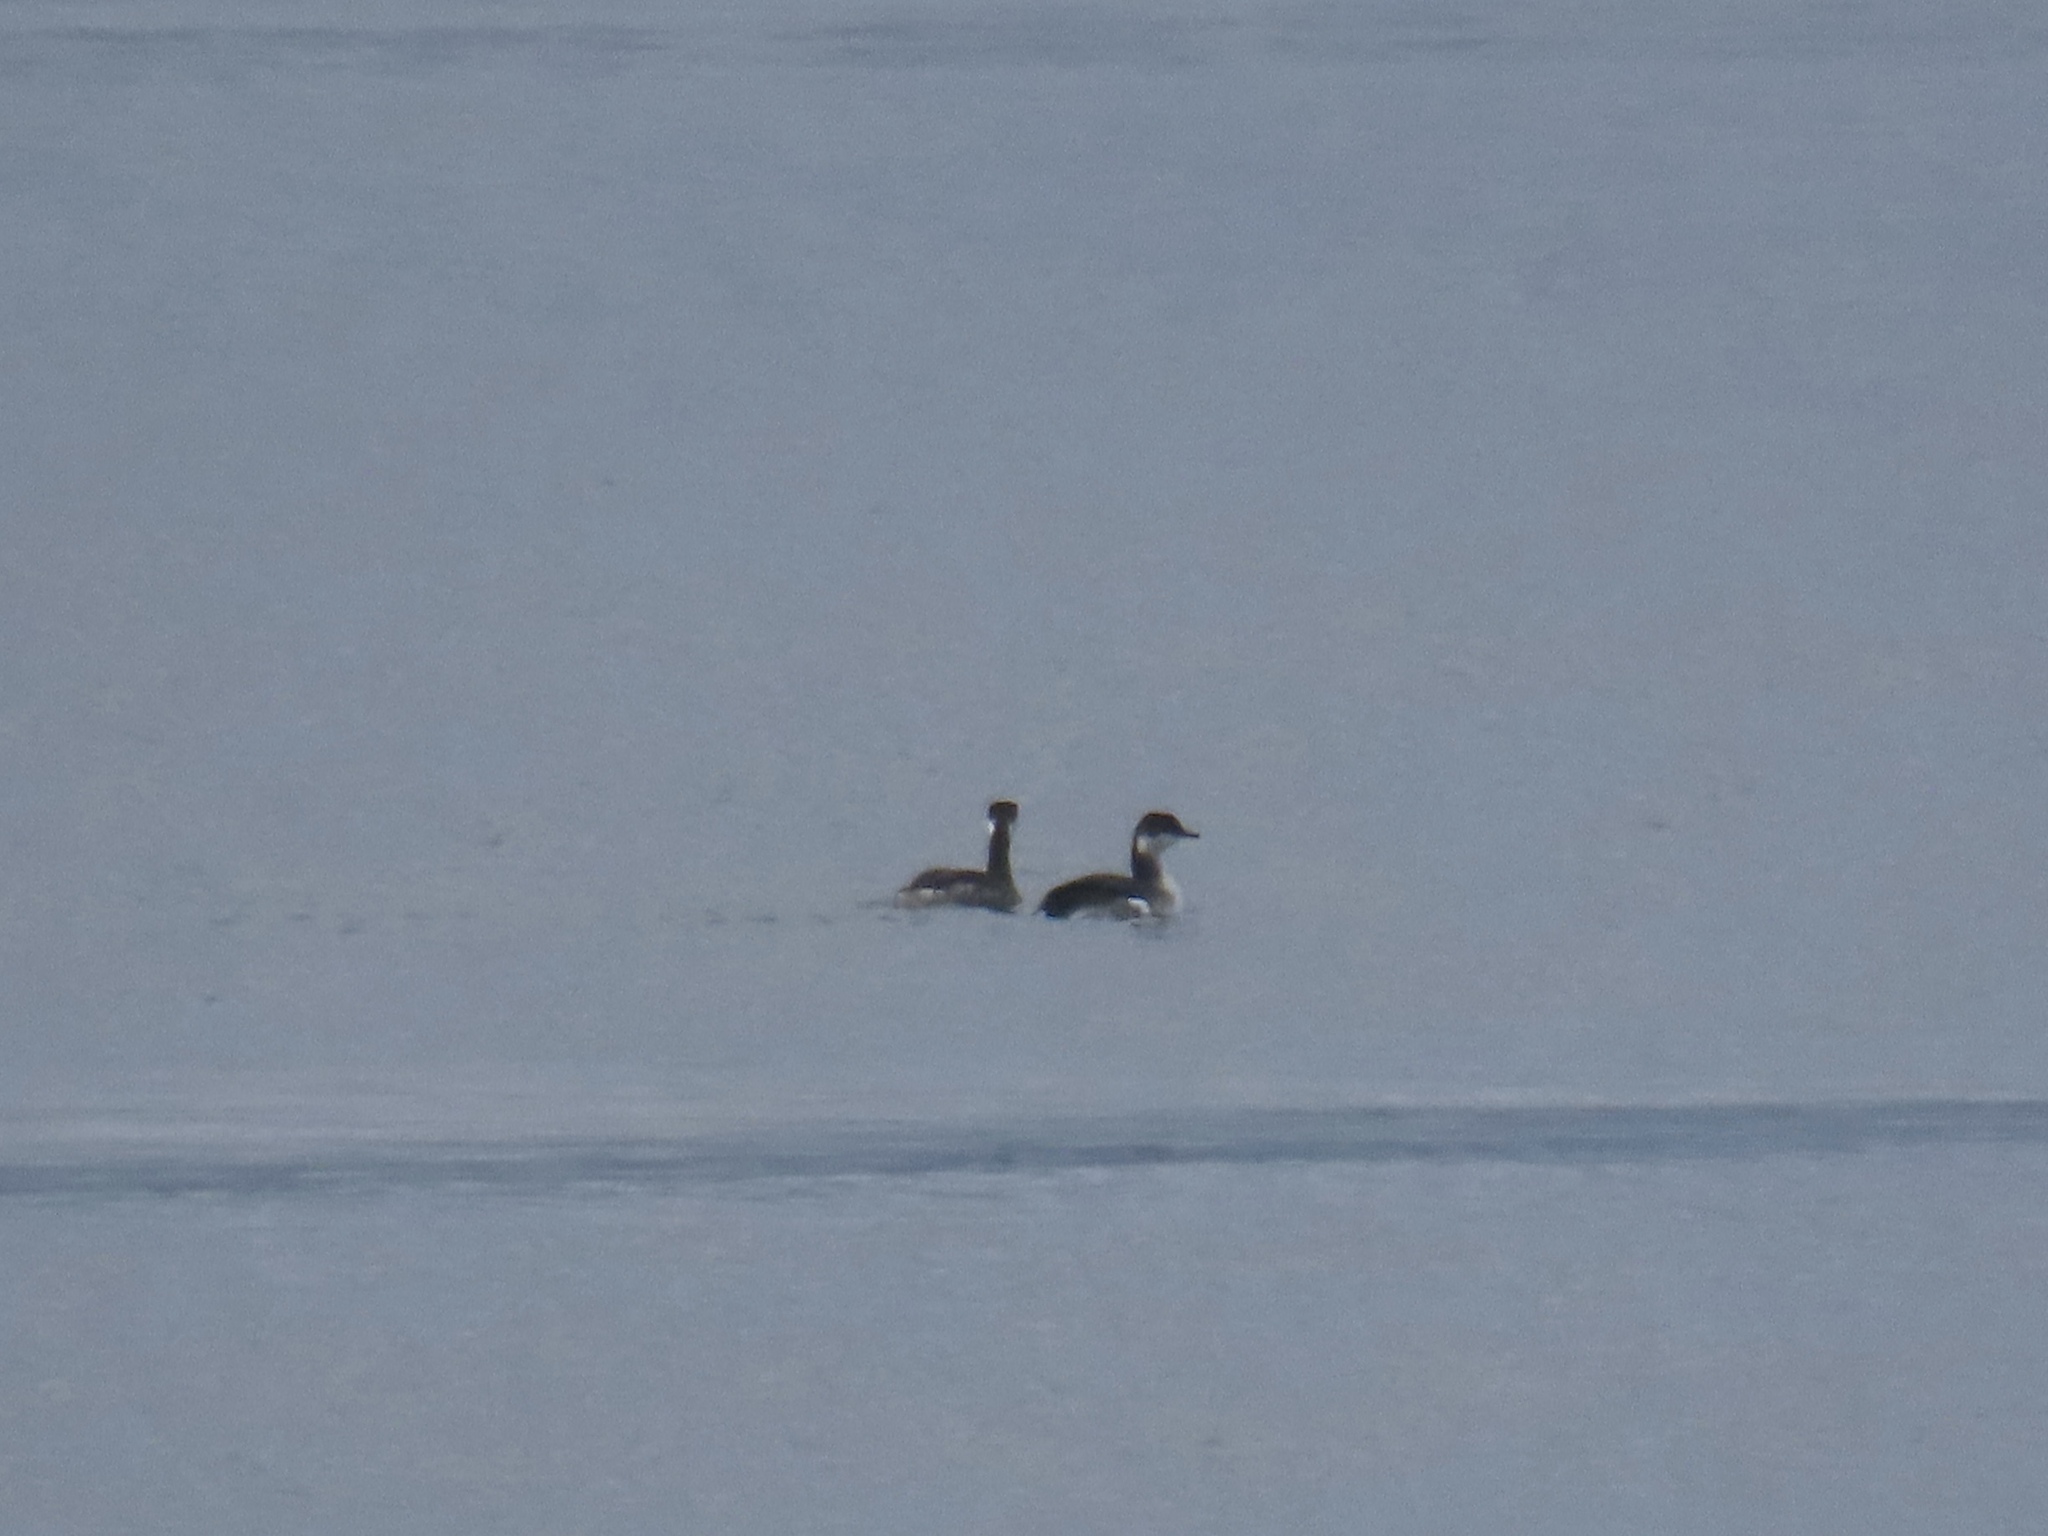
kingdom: Animalia
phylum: Chordata
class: Aves
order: Podicipediformes
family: Podicipedidae
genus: Podiceps
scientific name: Podiceps auritus
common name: Horned grebe
